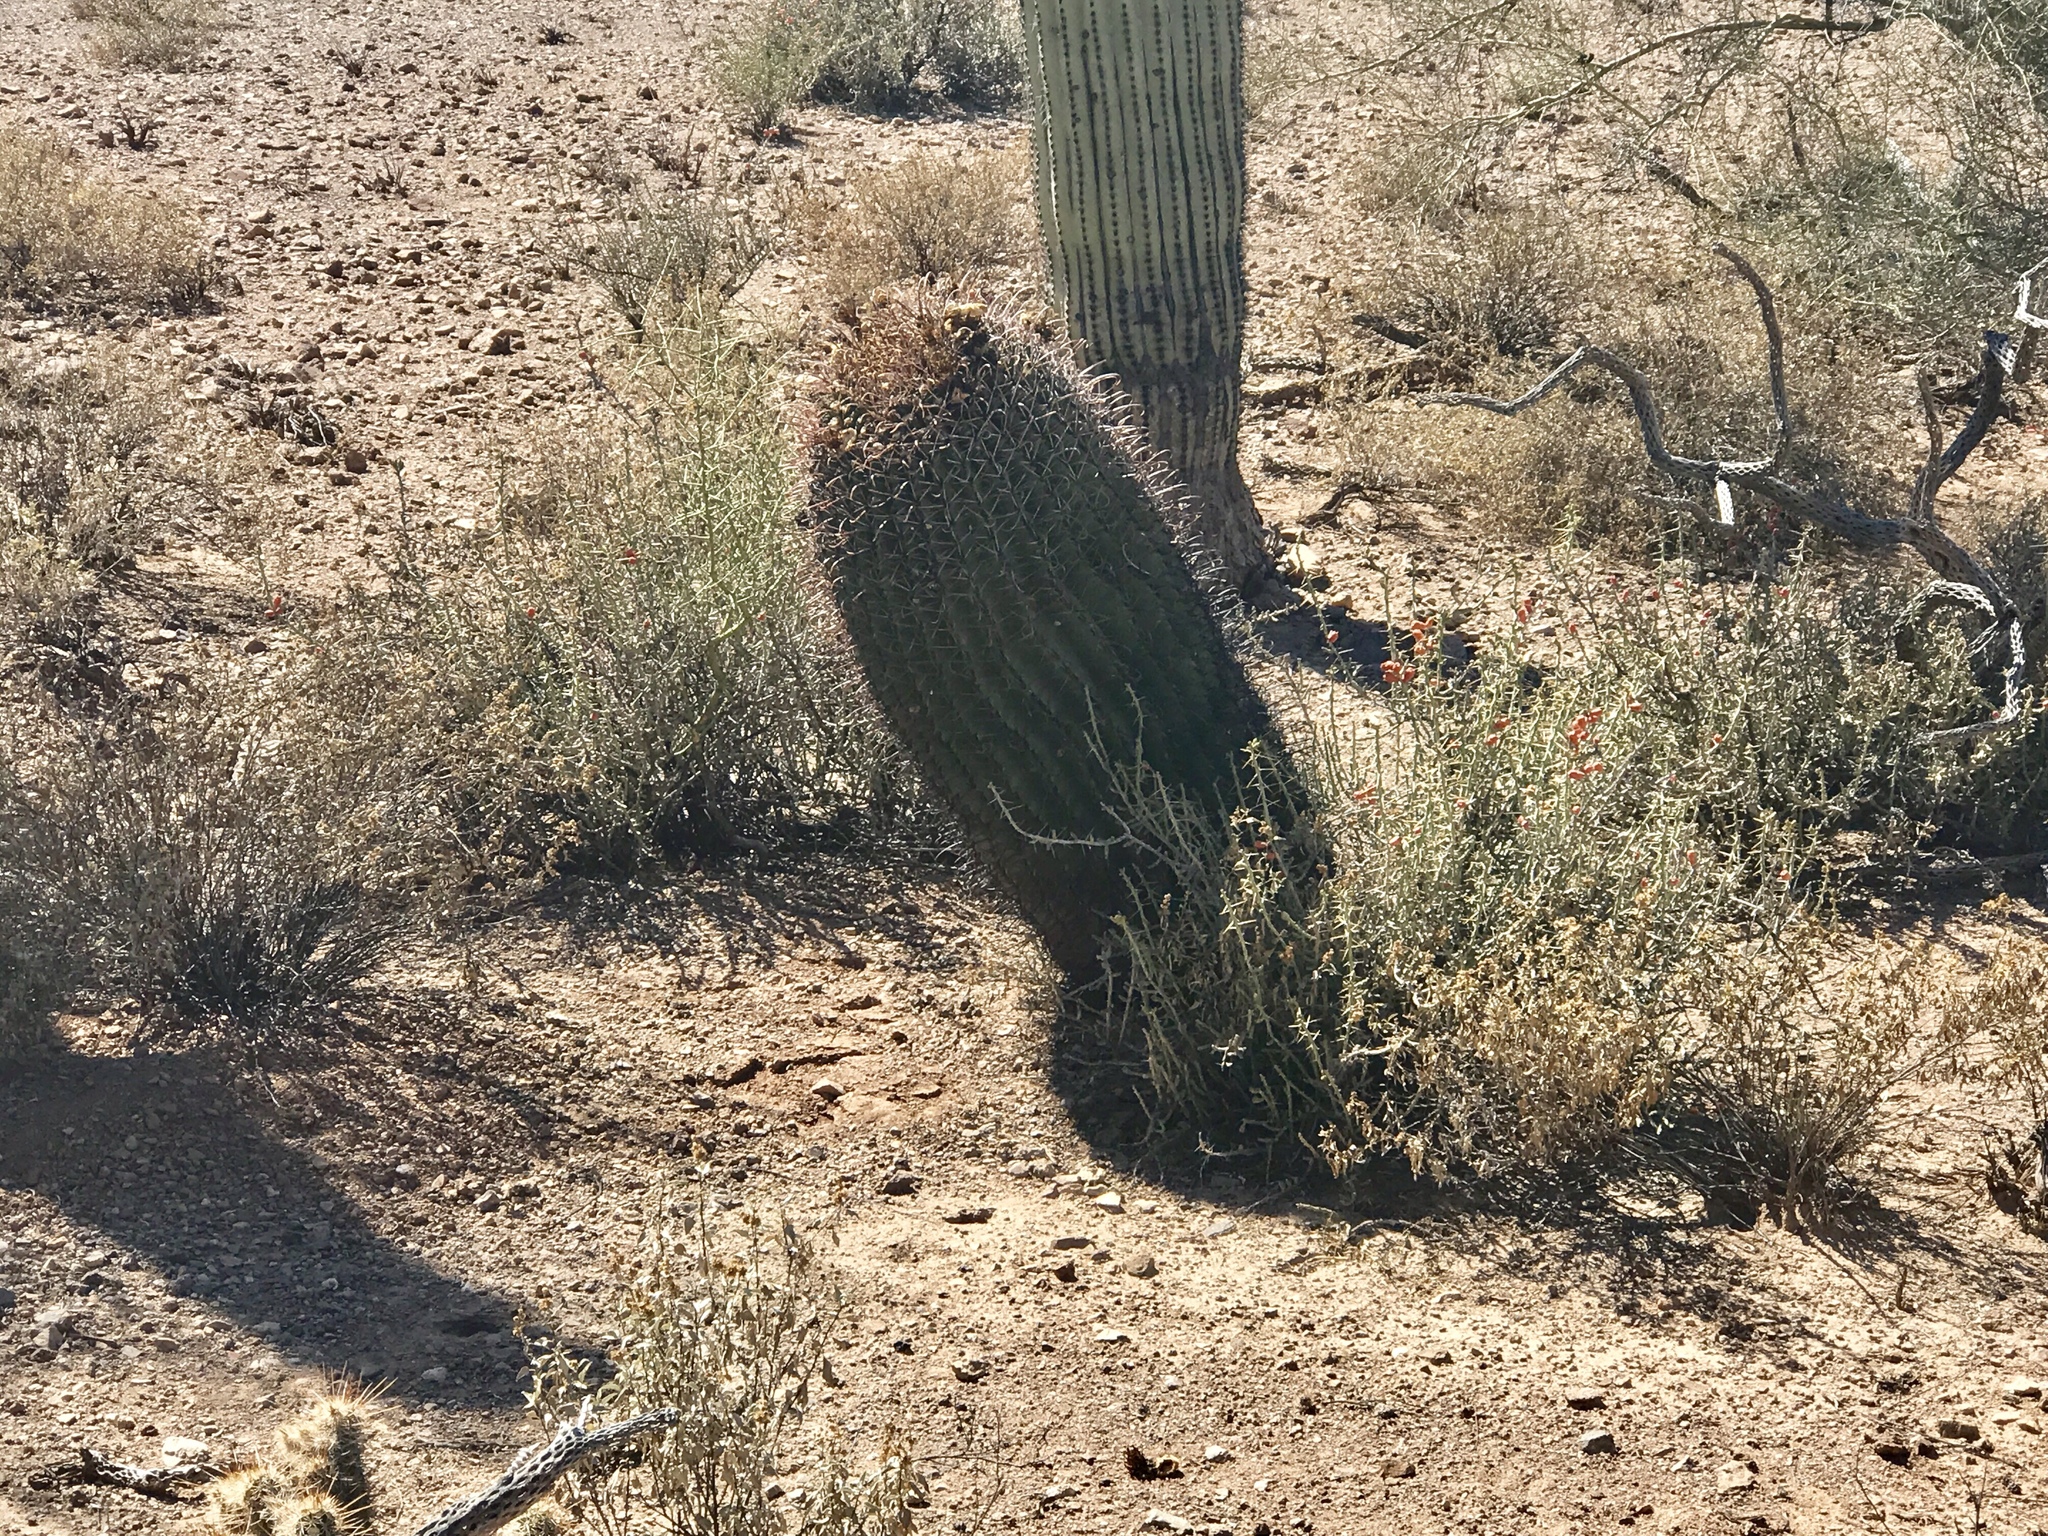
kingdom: Plantae
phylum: Tracheophyta
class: Magnoliopsida
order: Caryophyllales
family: Cactaceae
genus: Ferocactus
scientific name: Ferocactus wislizeni
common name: Candy barrel cactus
